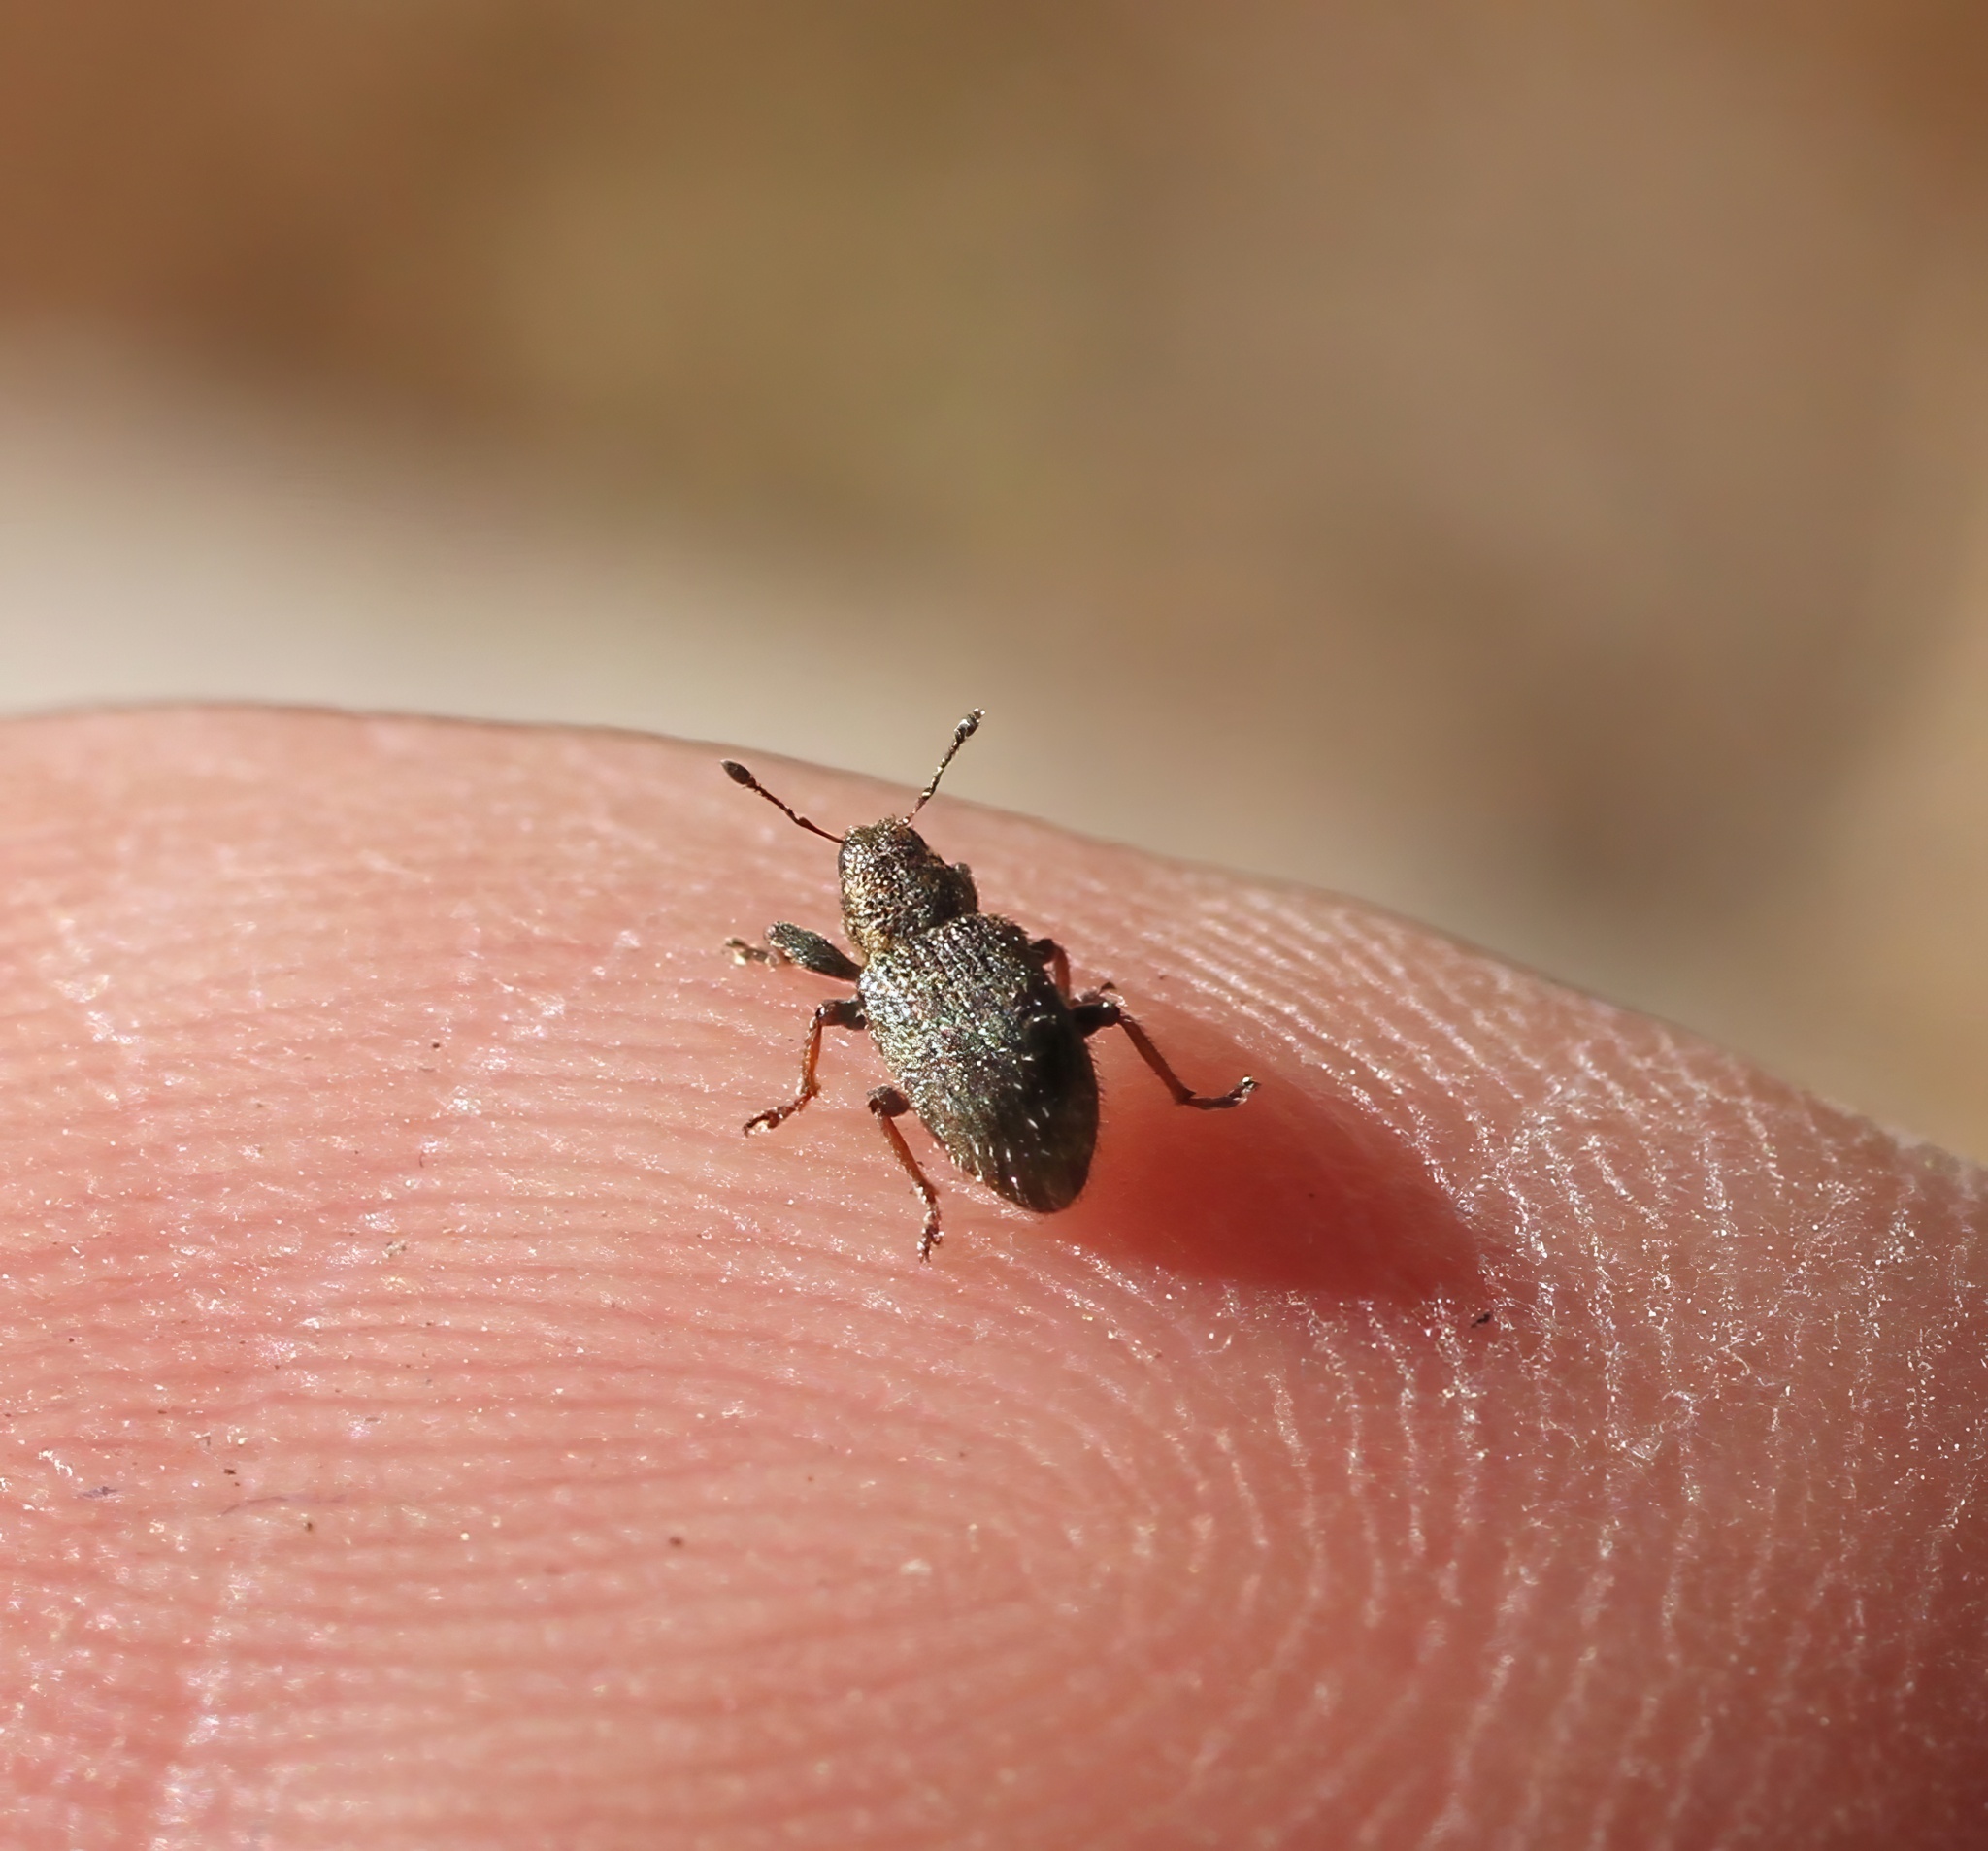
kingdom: Animalia
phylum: Arthropoda
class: Insecta
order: Coleoptera
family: Curculionidae
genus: Sitona
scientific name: Sitona hispidulus
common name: Clover weevil
